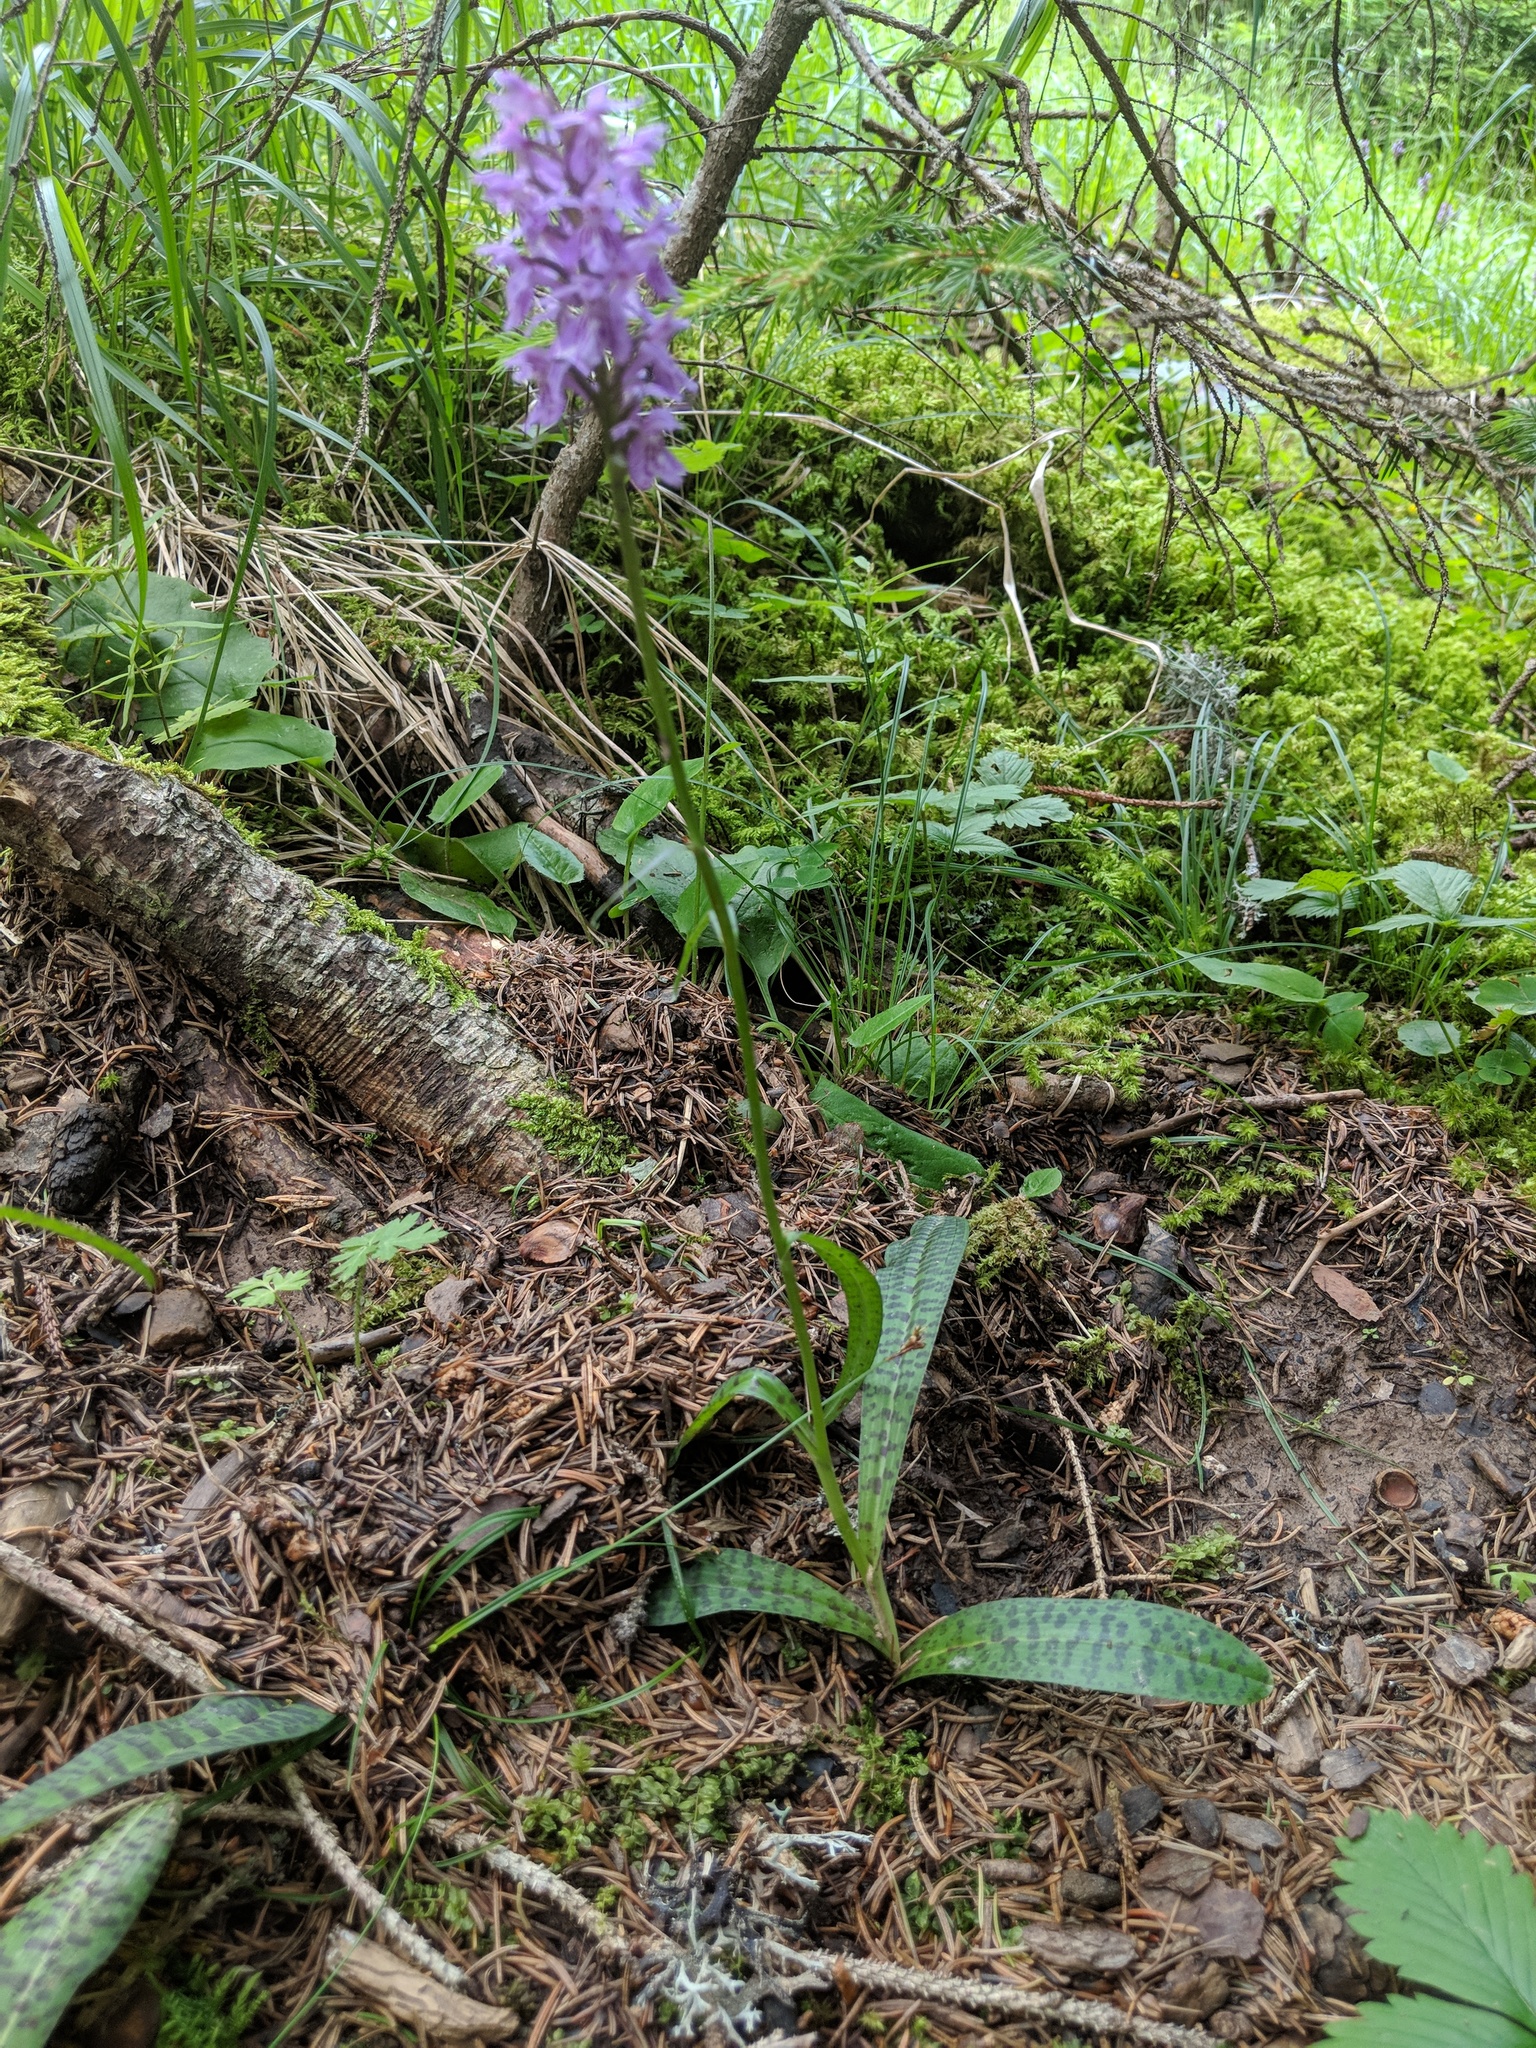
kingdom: Plantae
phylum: Tracheophyta
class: Liliopsida
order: Asparagales
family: Orchidaceae
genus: Dactylorhiza
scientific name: Dactylorhiza maculata
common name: Heath spotted-orchid
